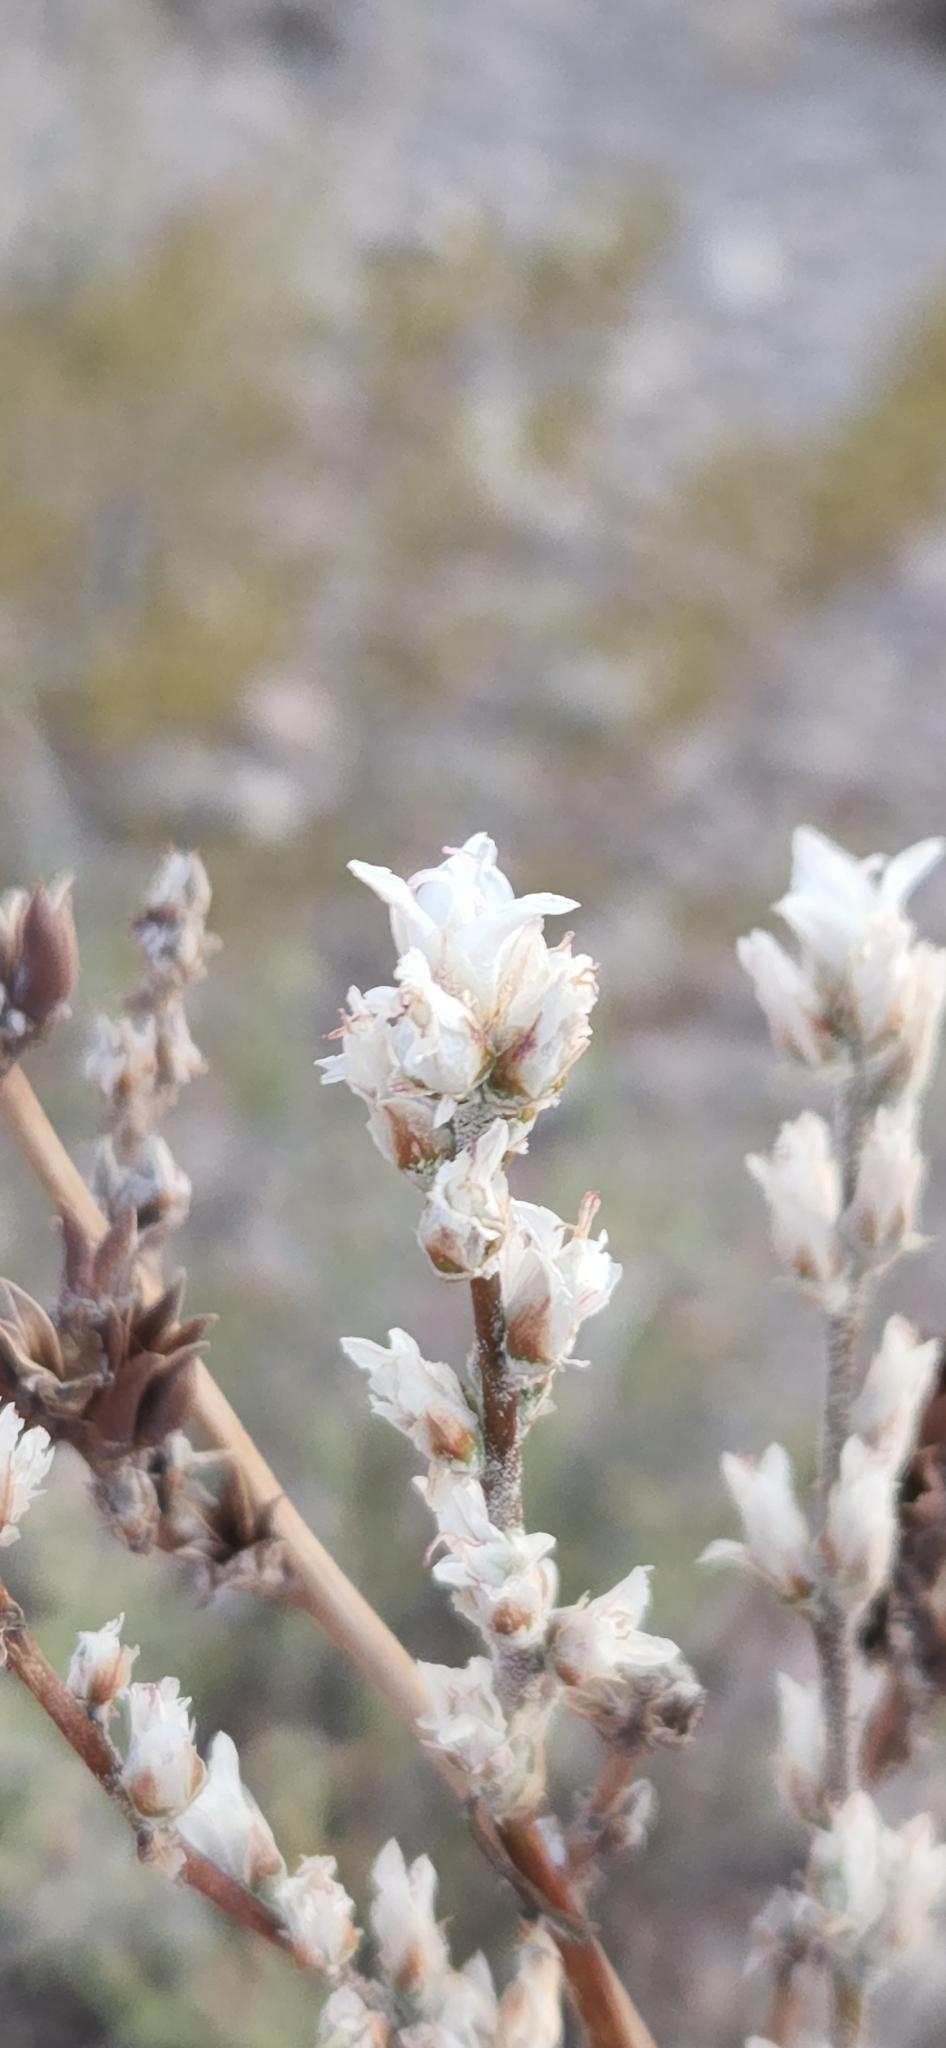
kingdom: Plantae
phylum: Tracheophyta
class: Liliopsida
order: Poales
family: Bromeliaceae
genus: Hechtia
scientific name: Hechtia texensis
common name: False agave
